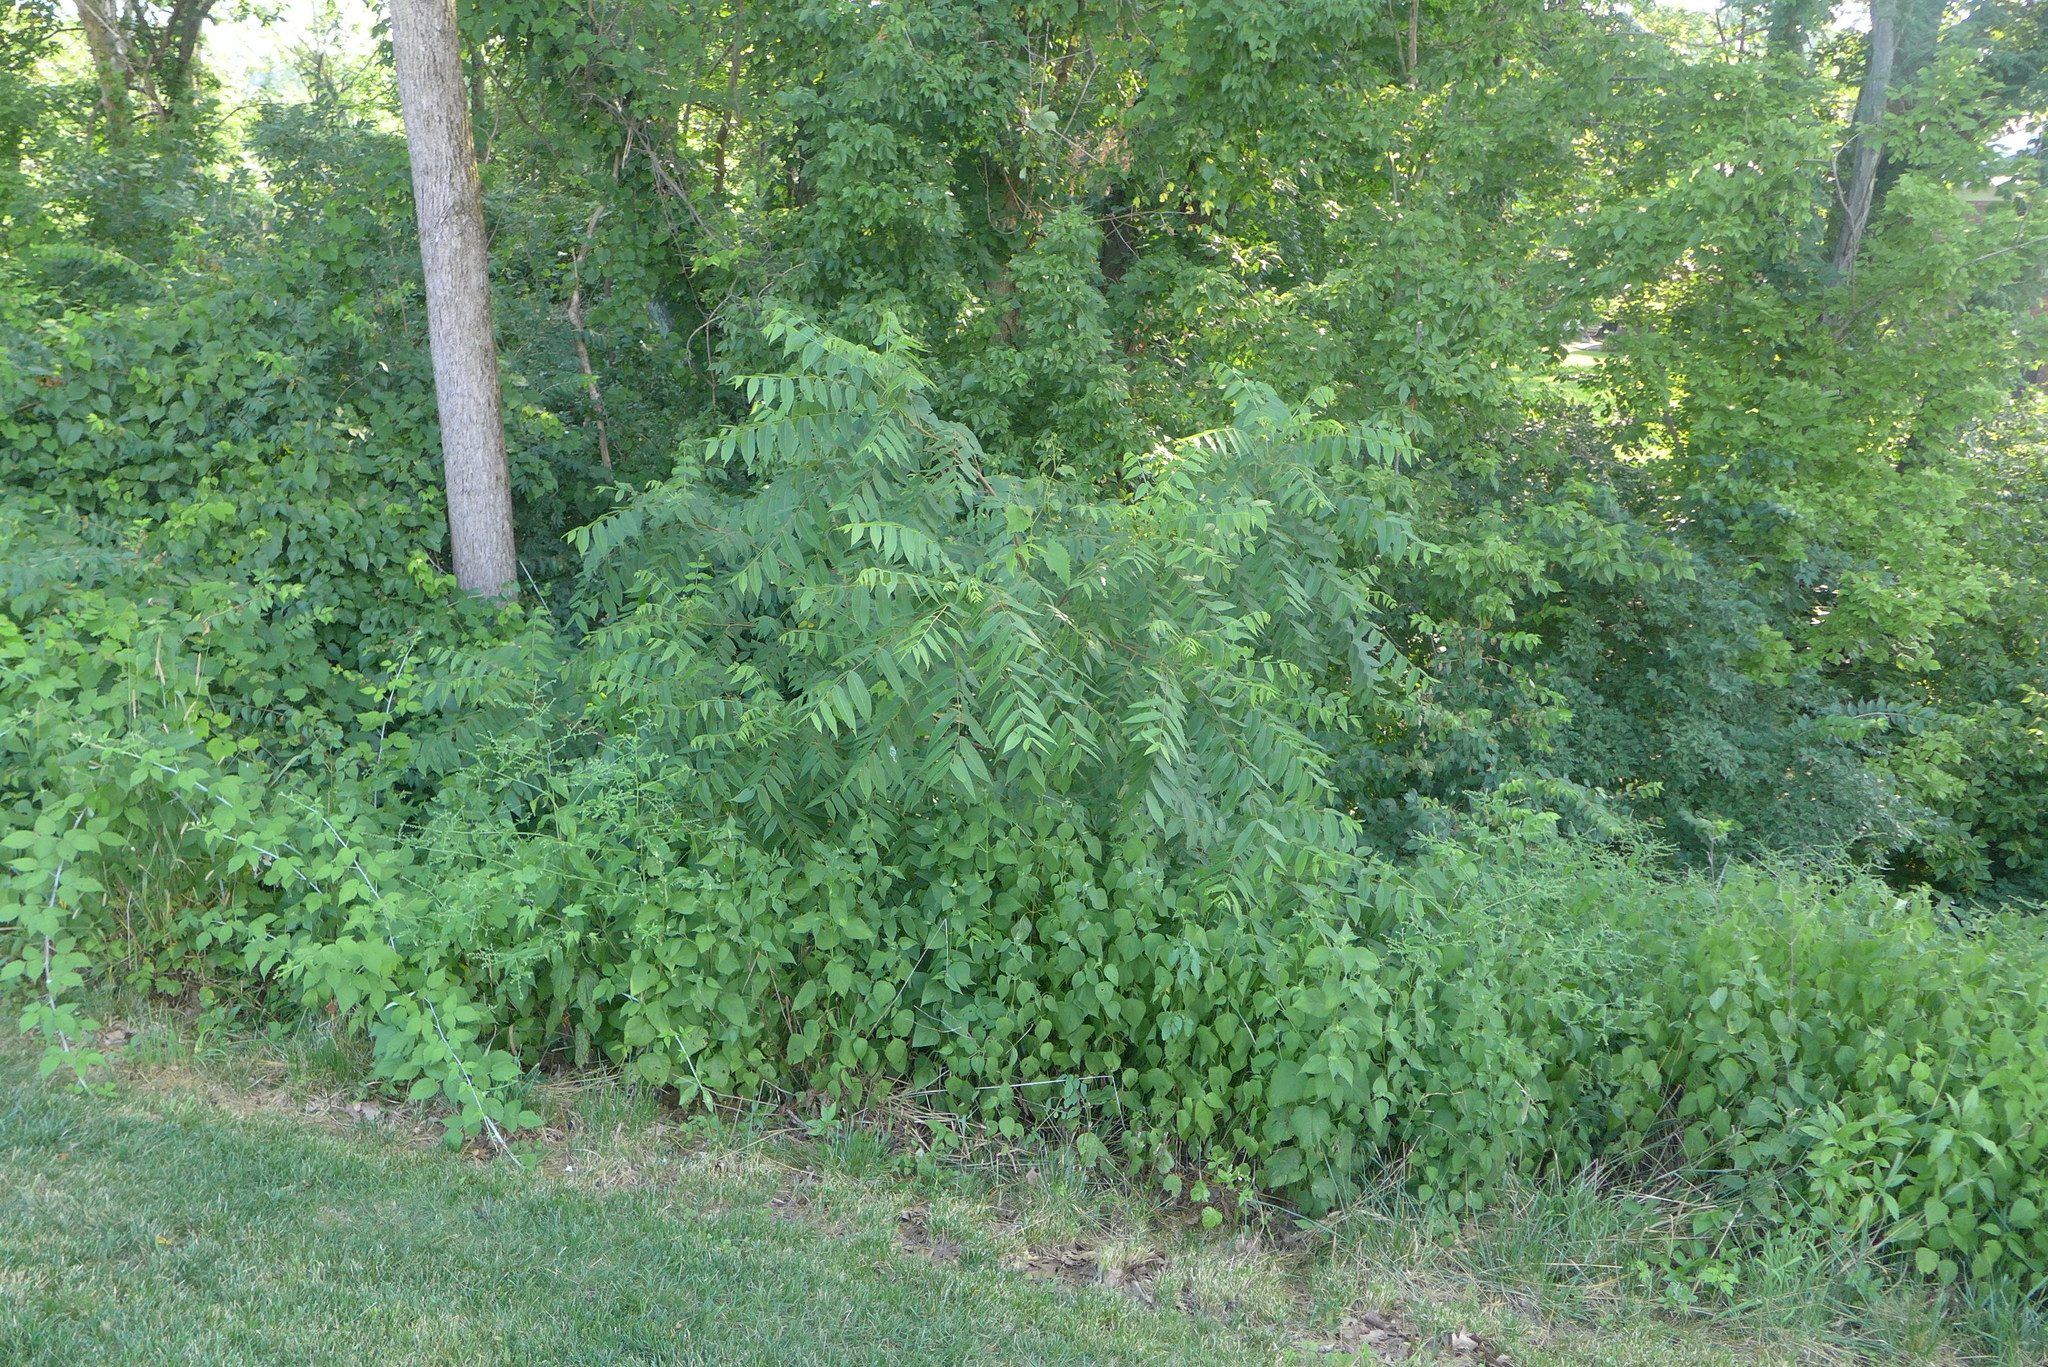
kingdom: Plantae
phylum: Tracheophyta
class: Magnoliopsida
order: Sapindales
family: Simaroubaceae
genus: Ailanthus
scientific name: Ailanthus altissima
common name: Tree-of-heaven
